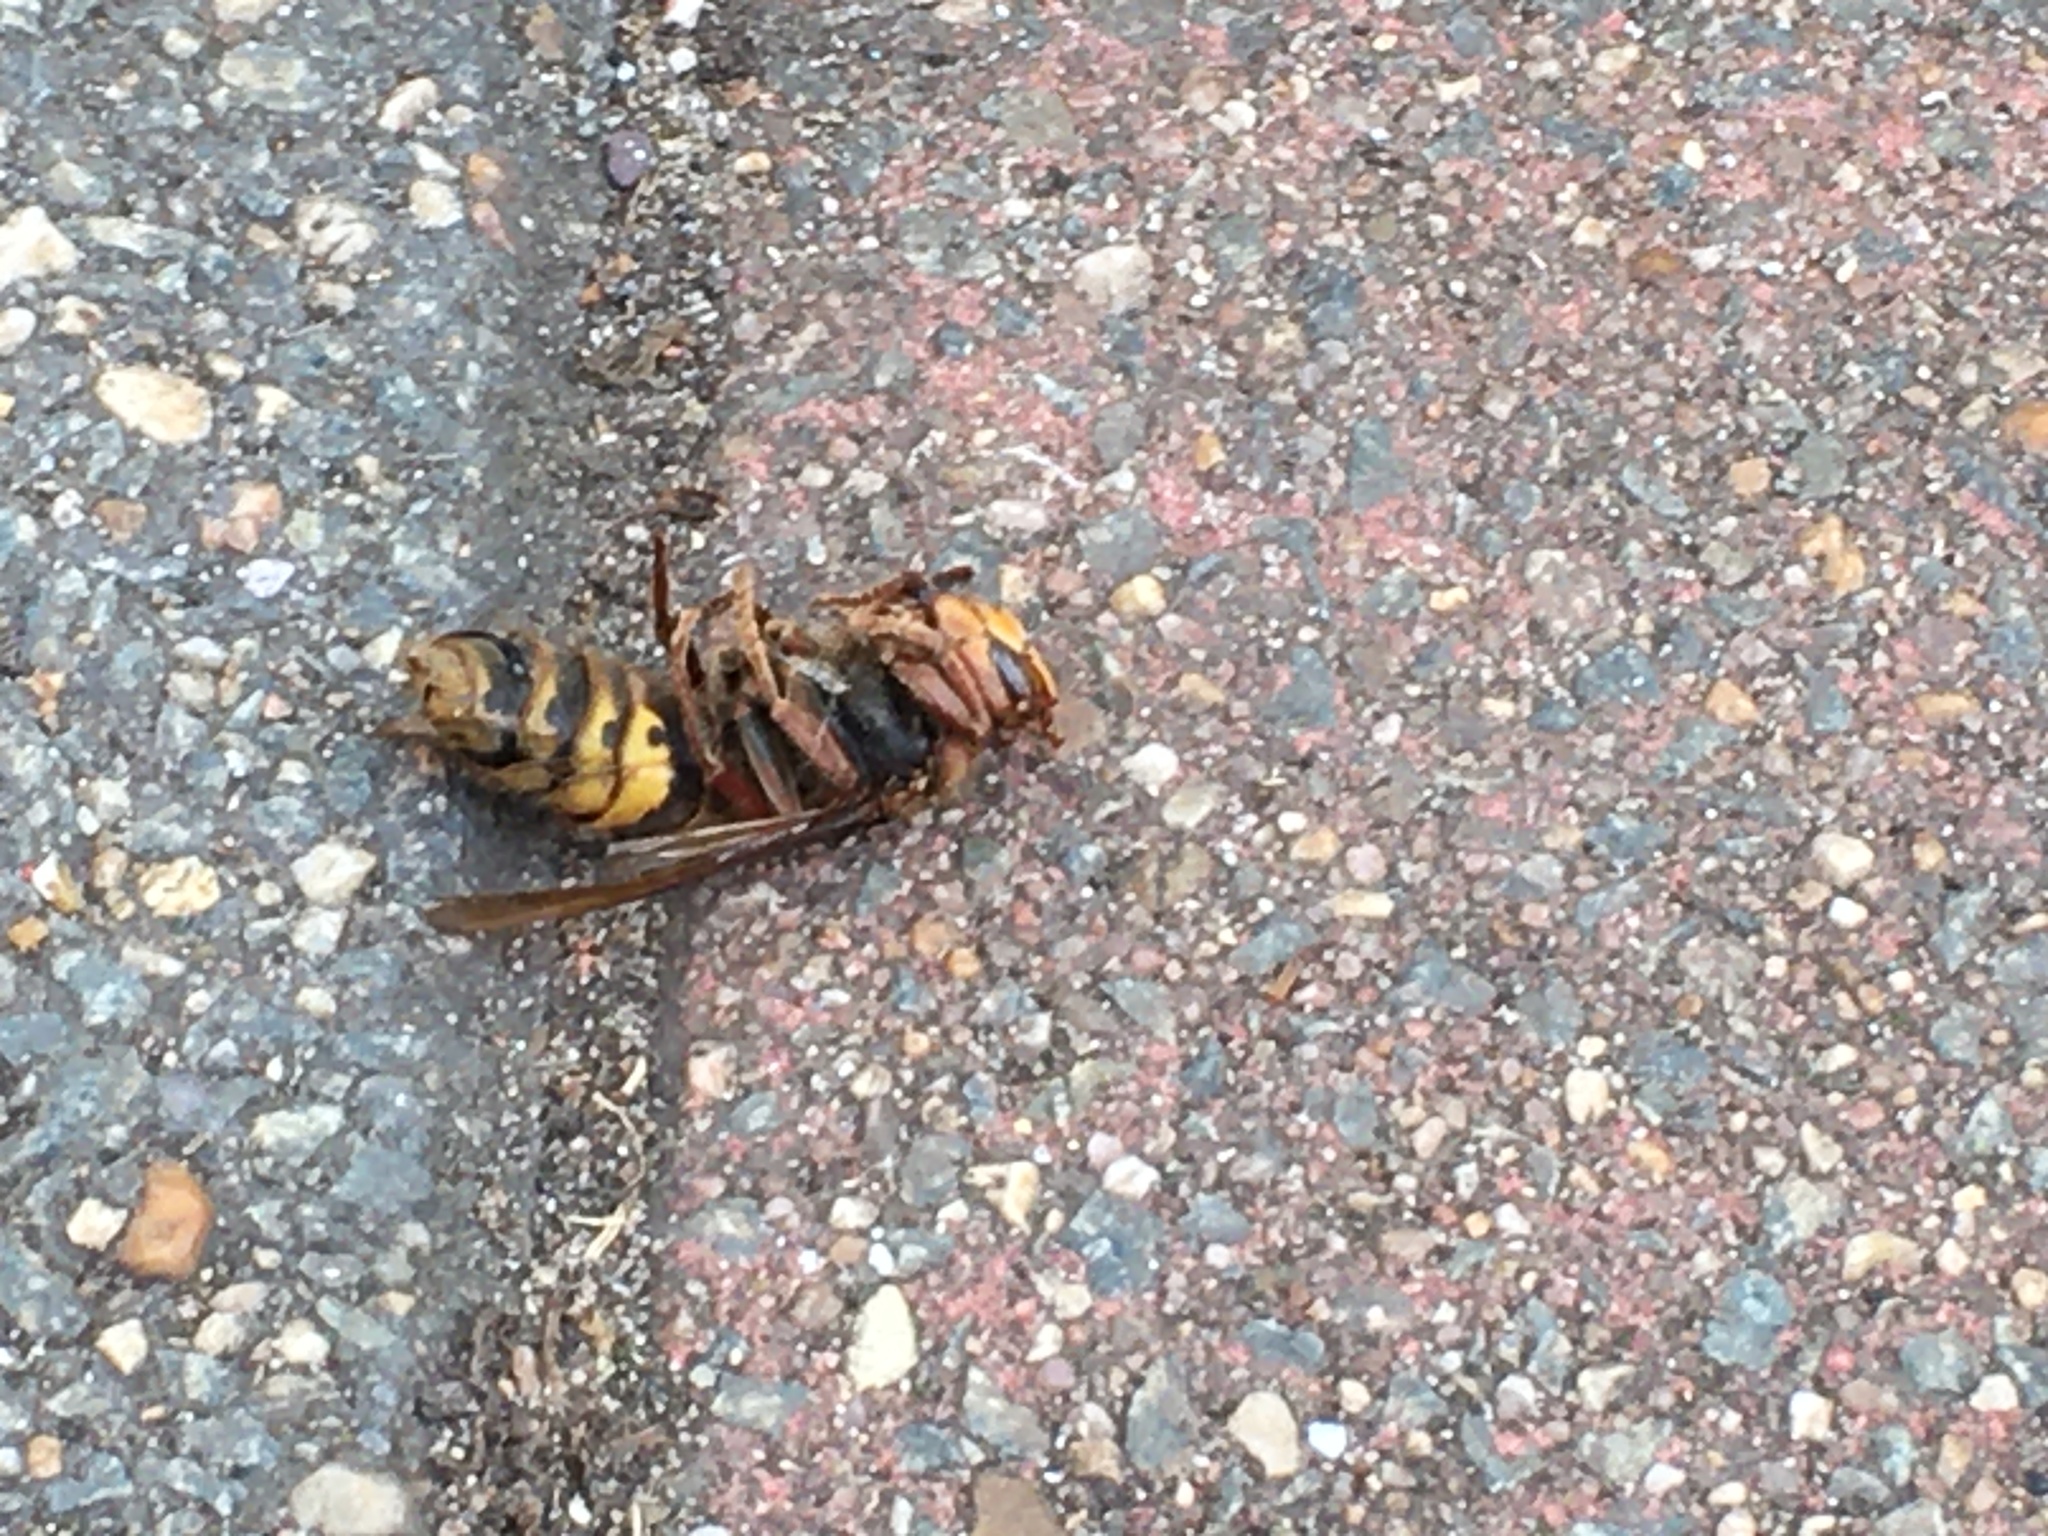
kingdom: Animalia
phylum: Arthropoda
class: Insecta
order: Hymenoptera
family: Vespidae
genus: Vespa
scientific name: Vespa crabro
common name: Hornet
